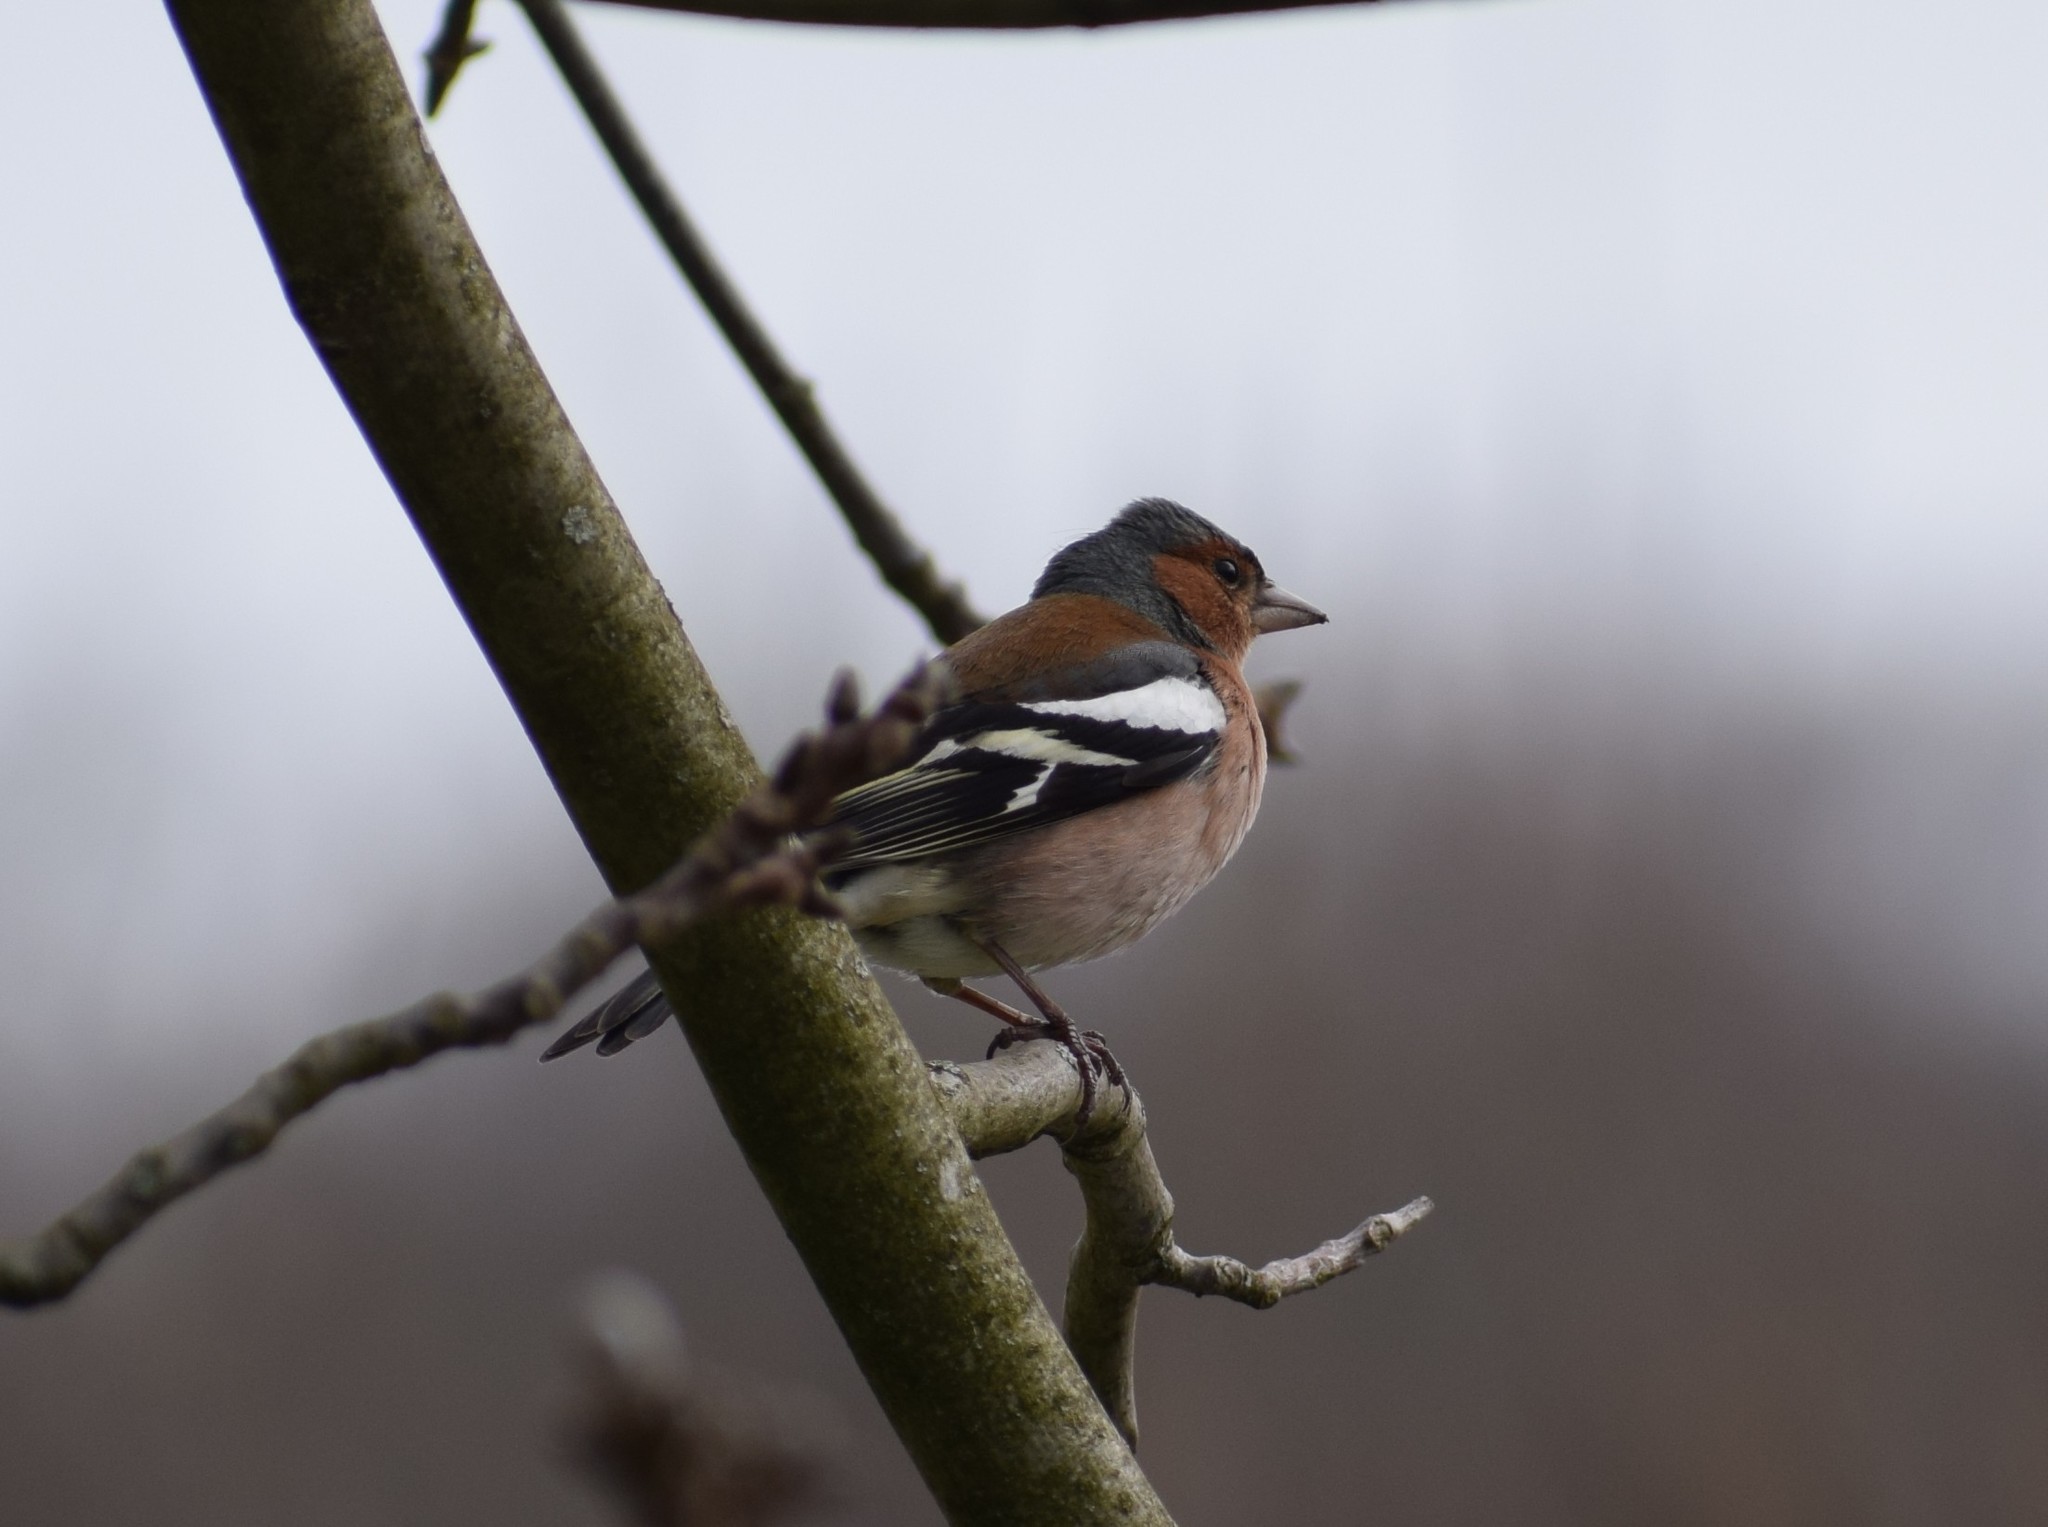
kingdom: Animalia
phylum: Chordata
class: Aves
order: Passeriformes
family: Fringillidae
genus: Fringilla
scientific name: Fringilla coelebs
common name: Common chaffinch
